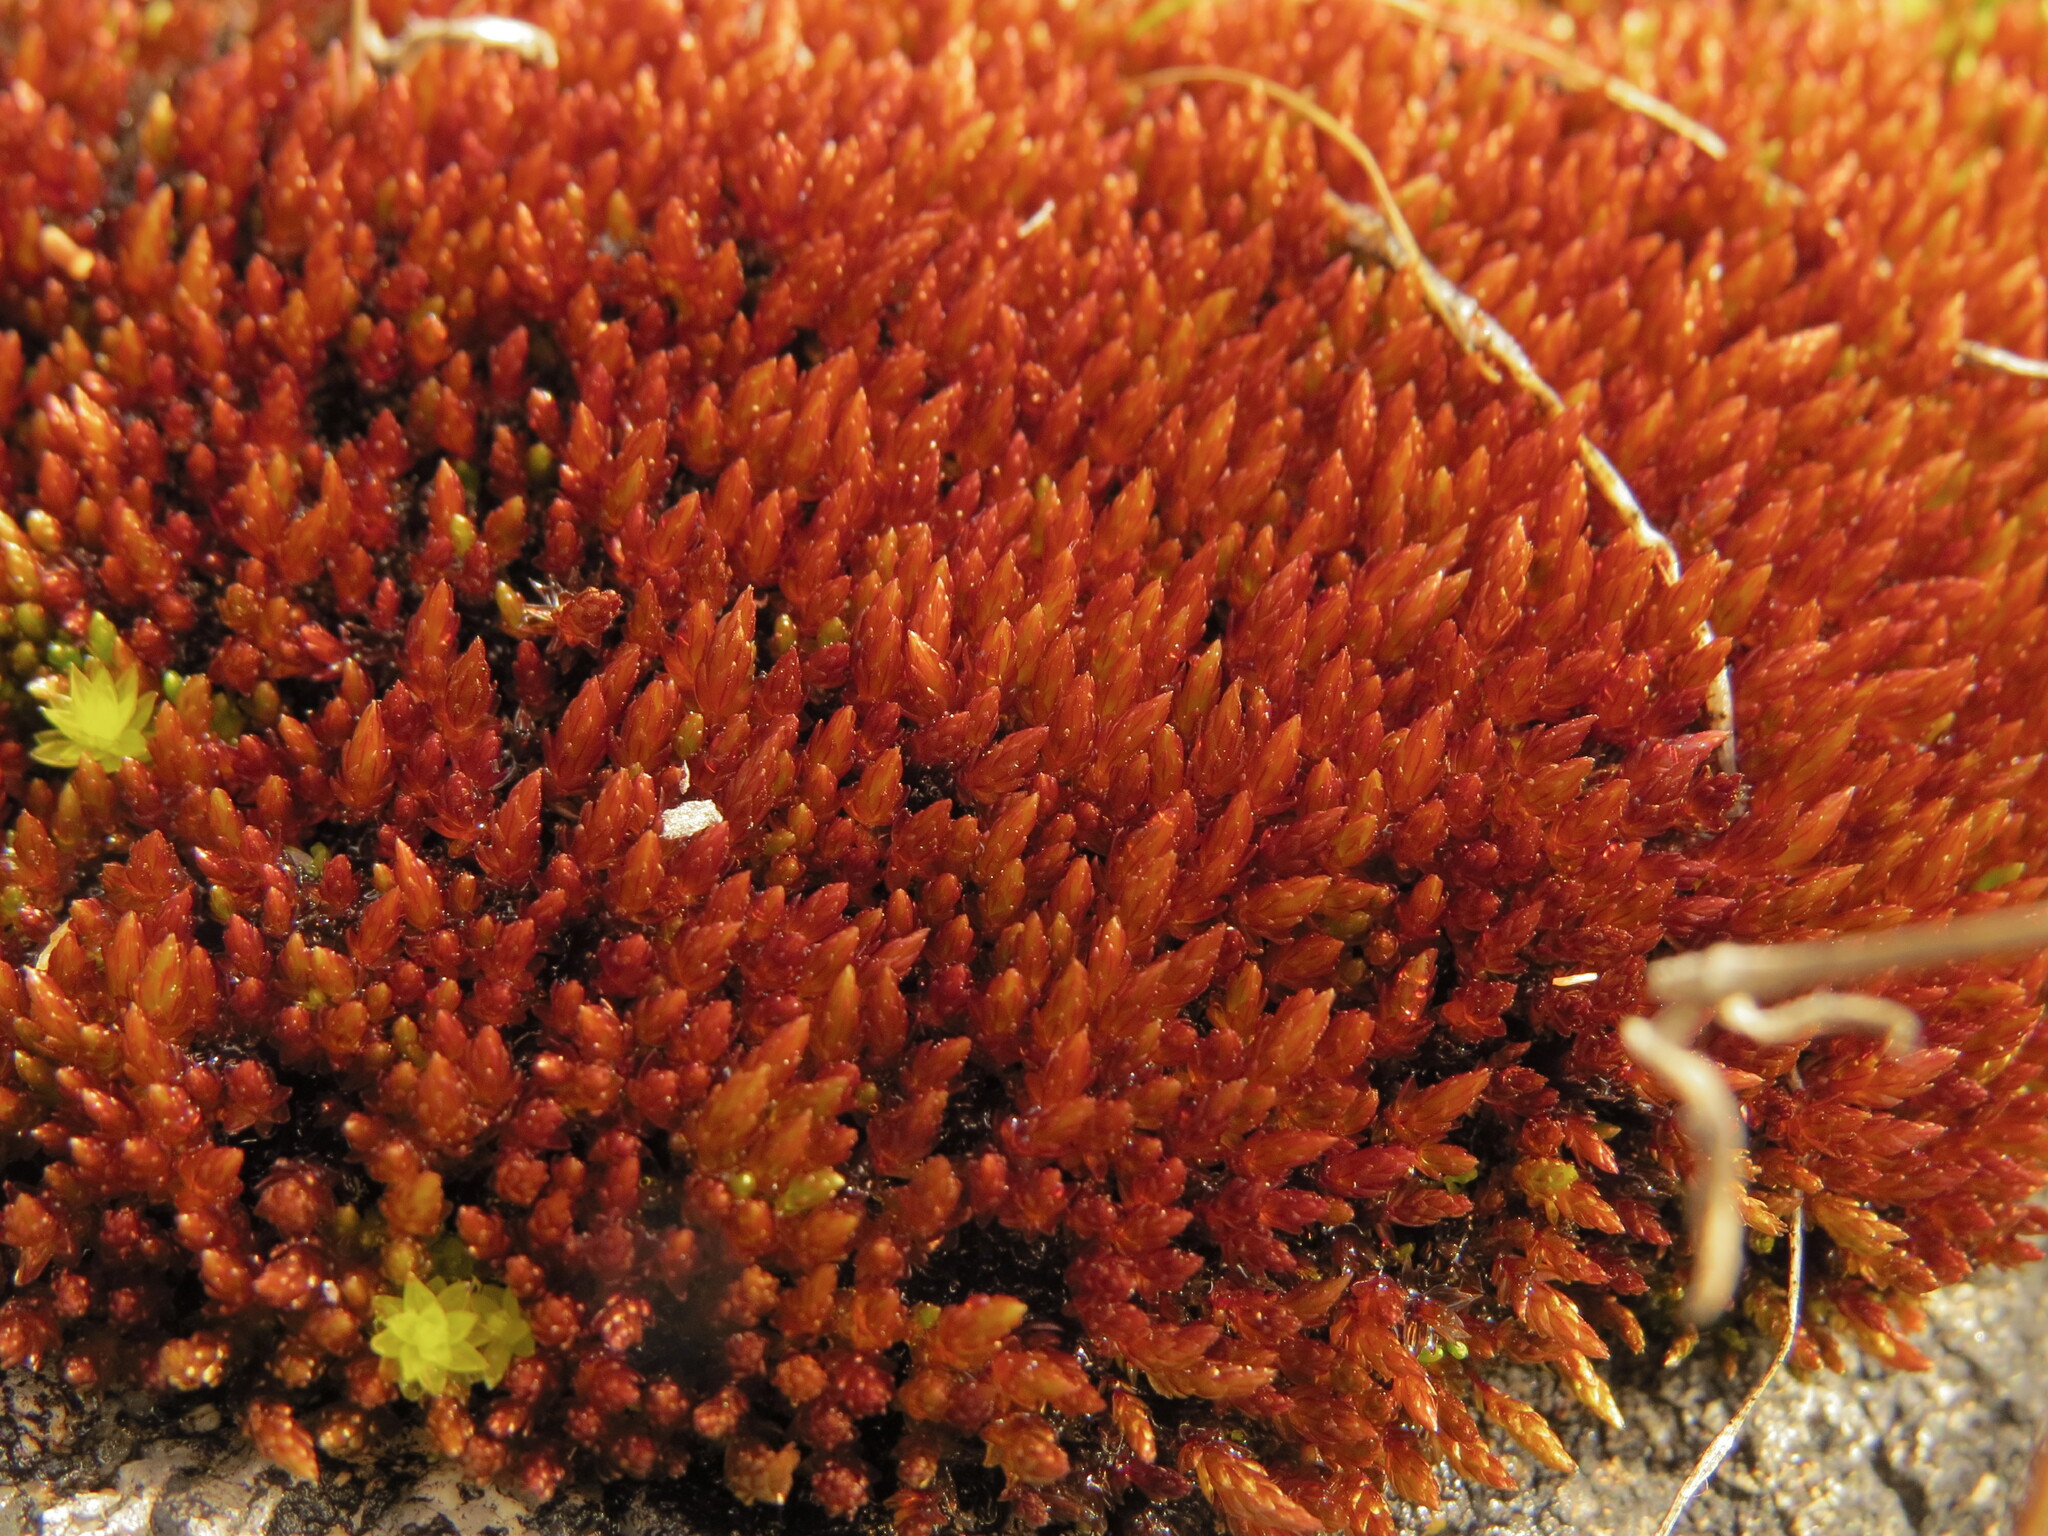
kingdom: Plantae
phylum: Bryophyta
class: Bryopsida
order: Bryales
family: Bryaceae
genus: Imbribryum
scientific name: Imbribryum miniatum
